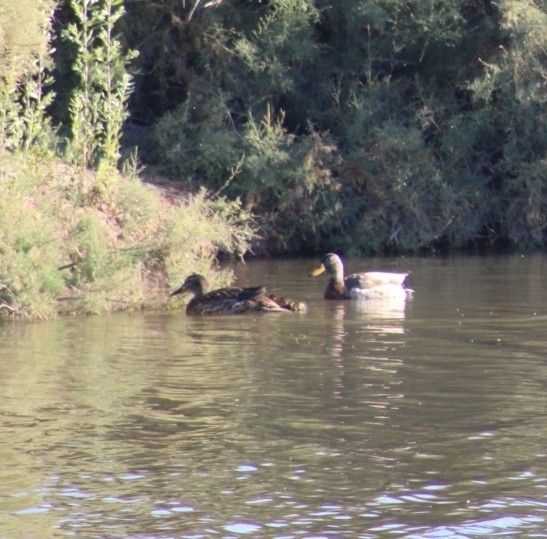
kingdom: Animalia
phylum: Chordata
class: Aves
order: Anseriformes
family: Anatidae
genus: Anas
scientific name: Anas platyrhynchos
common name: Mallard
